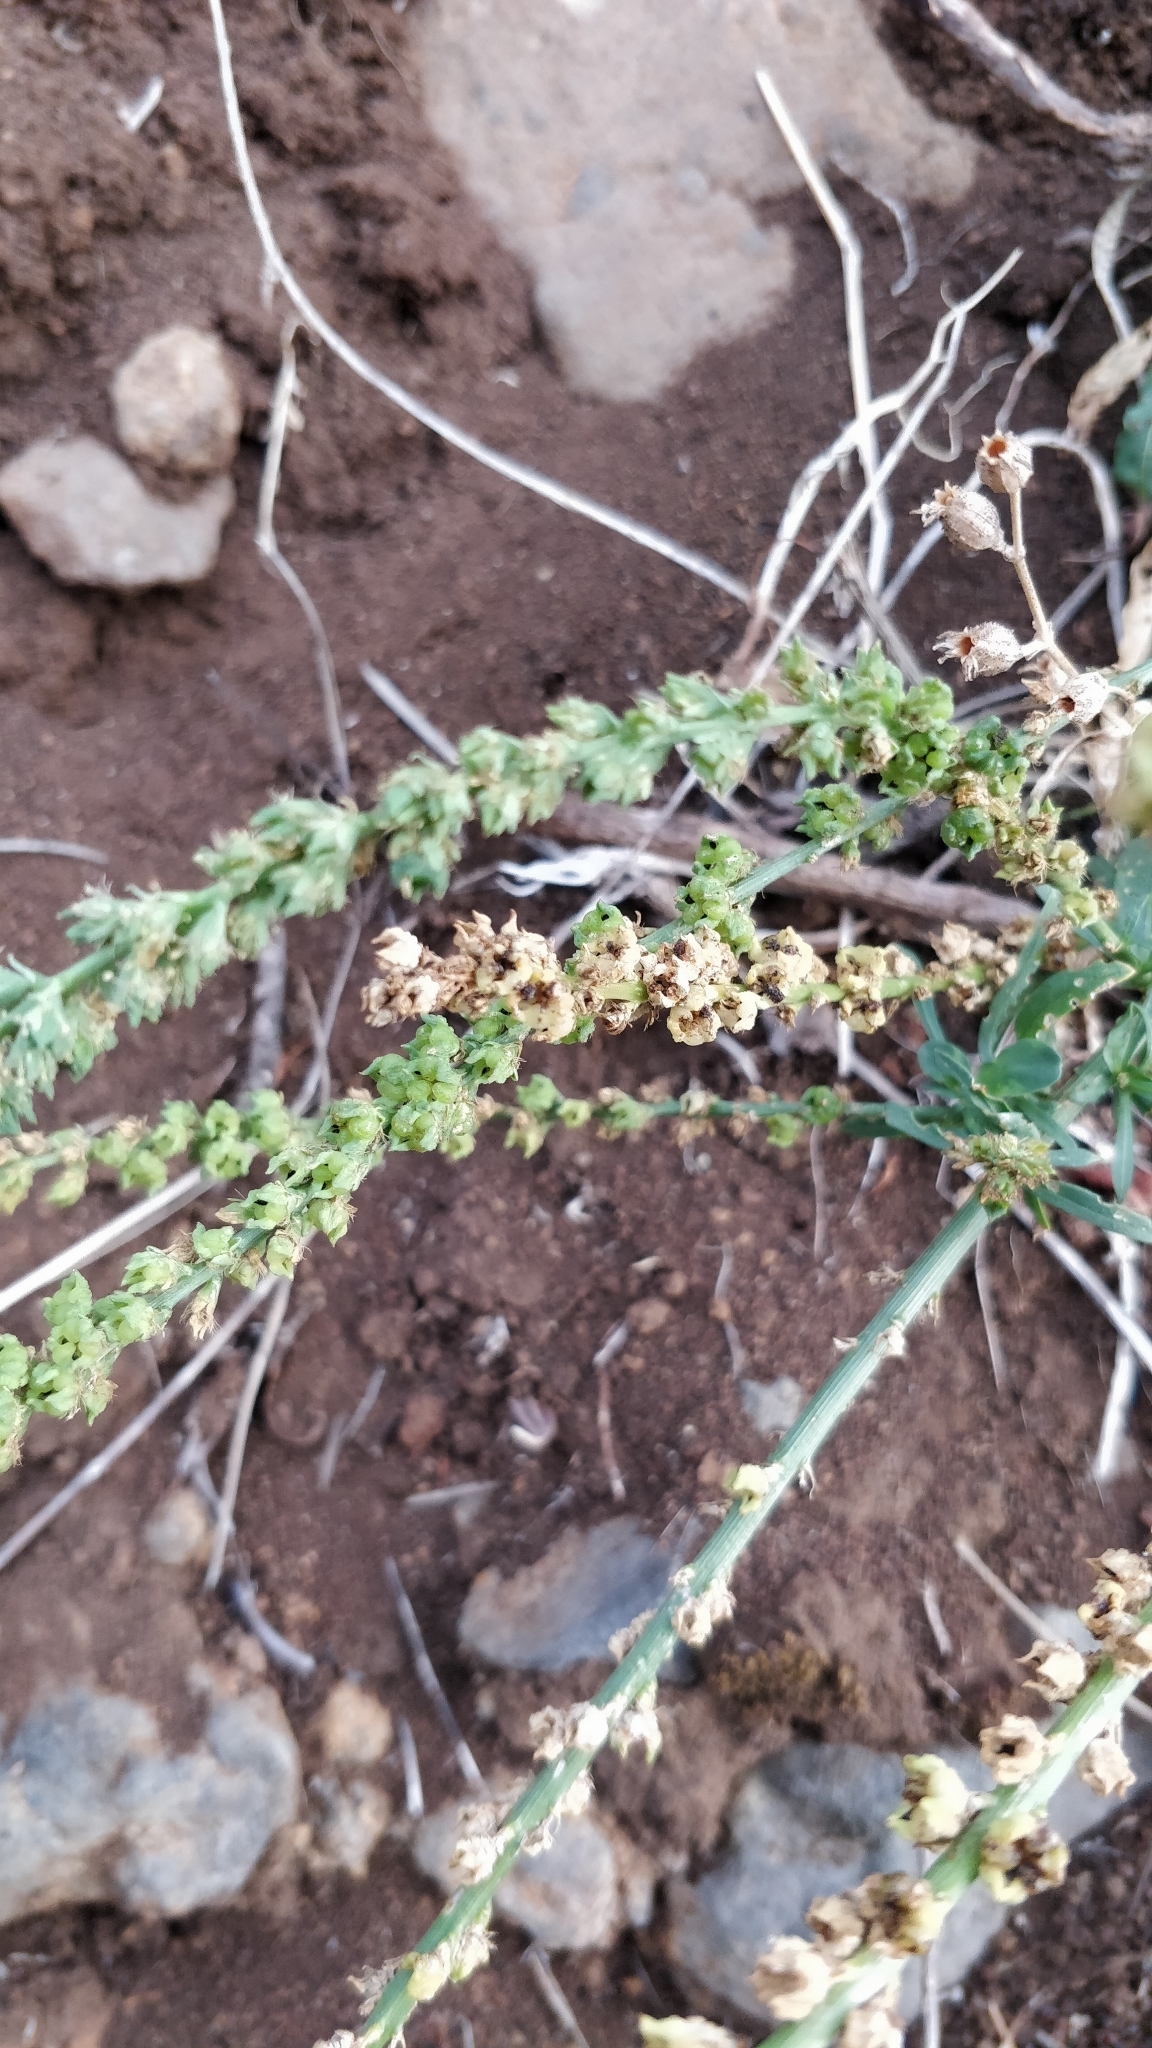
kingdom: Plantae
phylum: Tracheophyta
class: Magnoliopsida
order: Brassicales
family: Resedaceae
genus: Reseda
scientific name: Reseda luteola
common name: Weld
